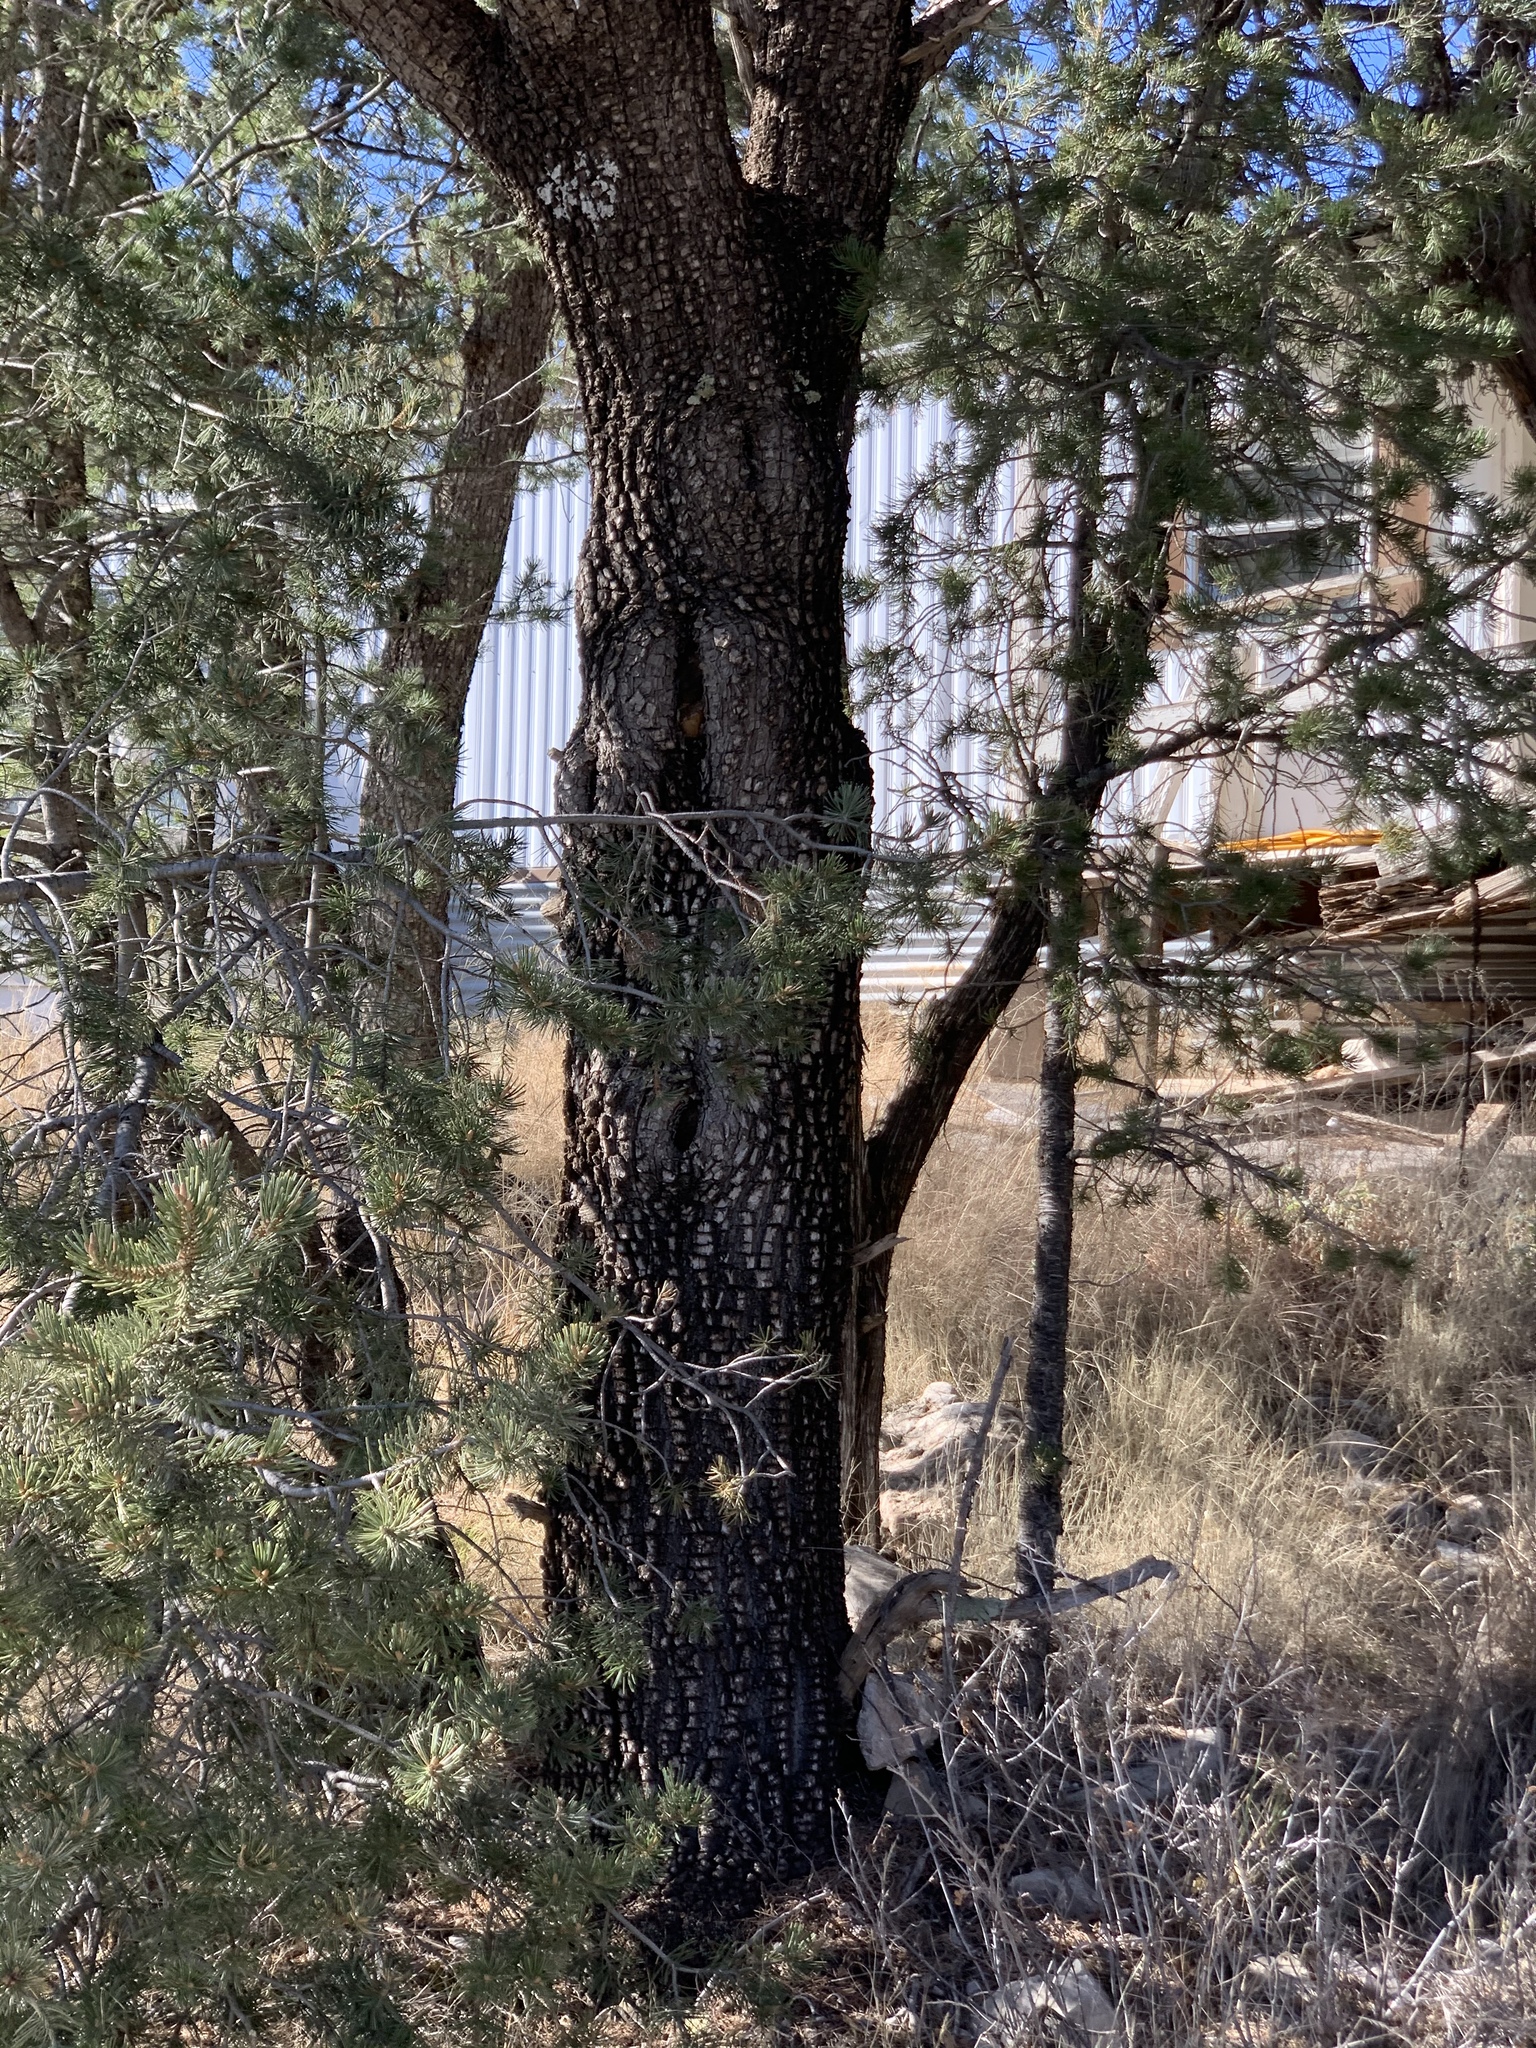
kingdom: Plantae
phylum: Tracheophyta
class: Pinopsida
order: Pinales
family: Cupressaceae
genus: Juniperus
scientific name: Juniperus deppeana
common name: Alligator juniper
